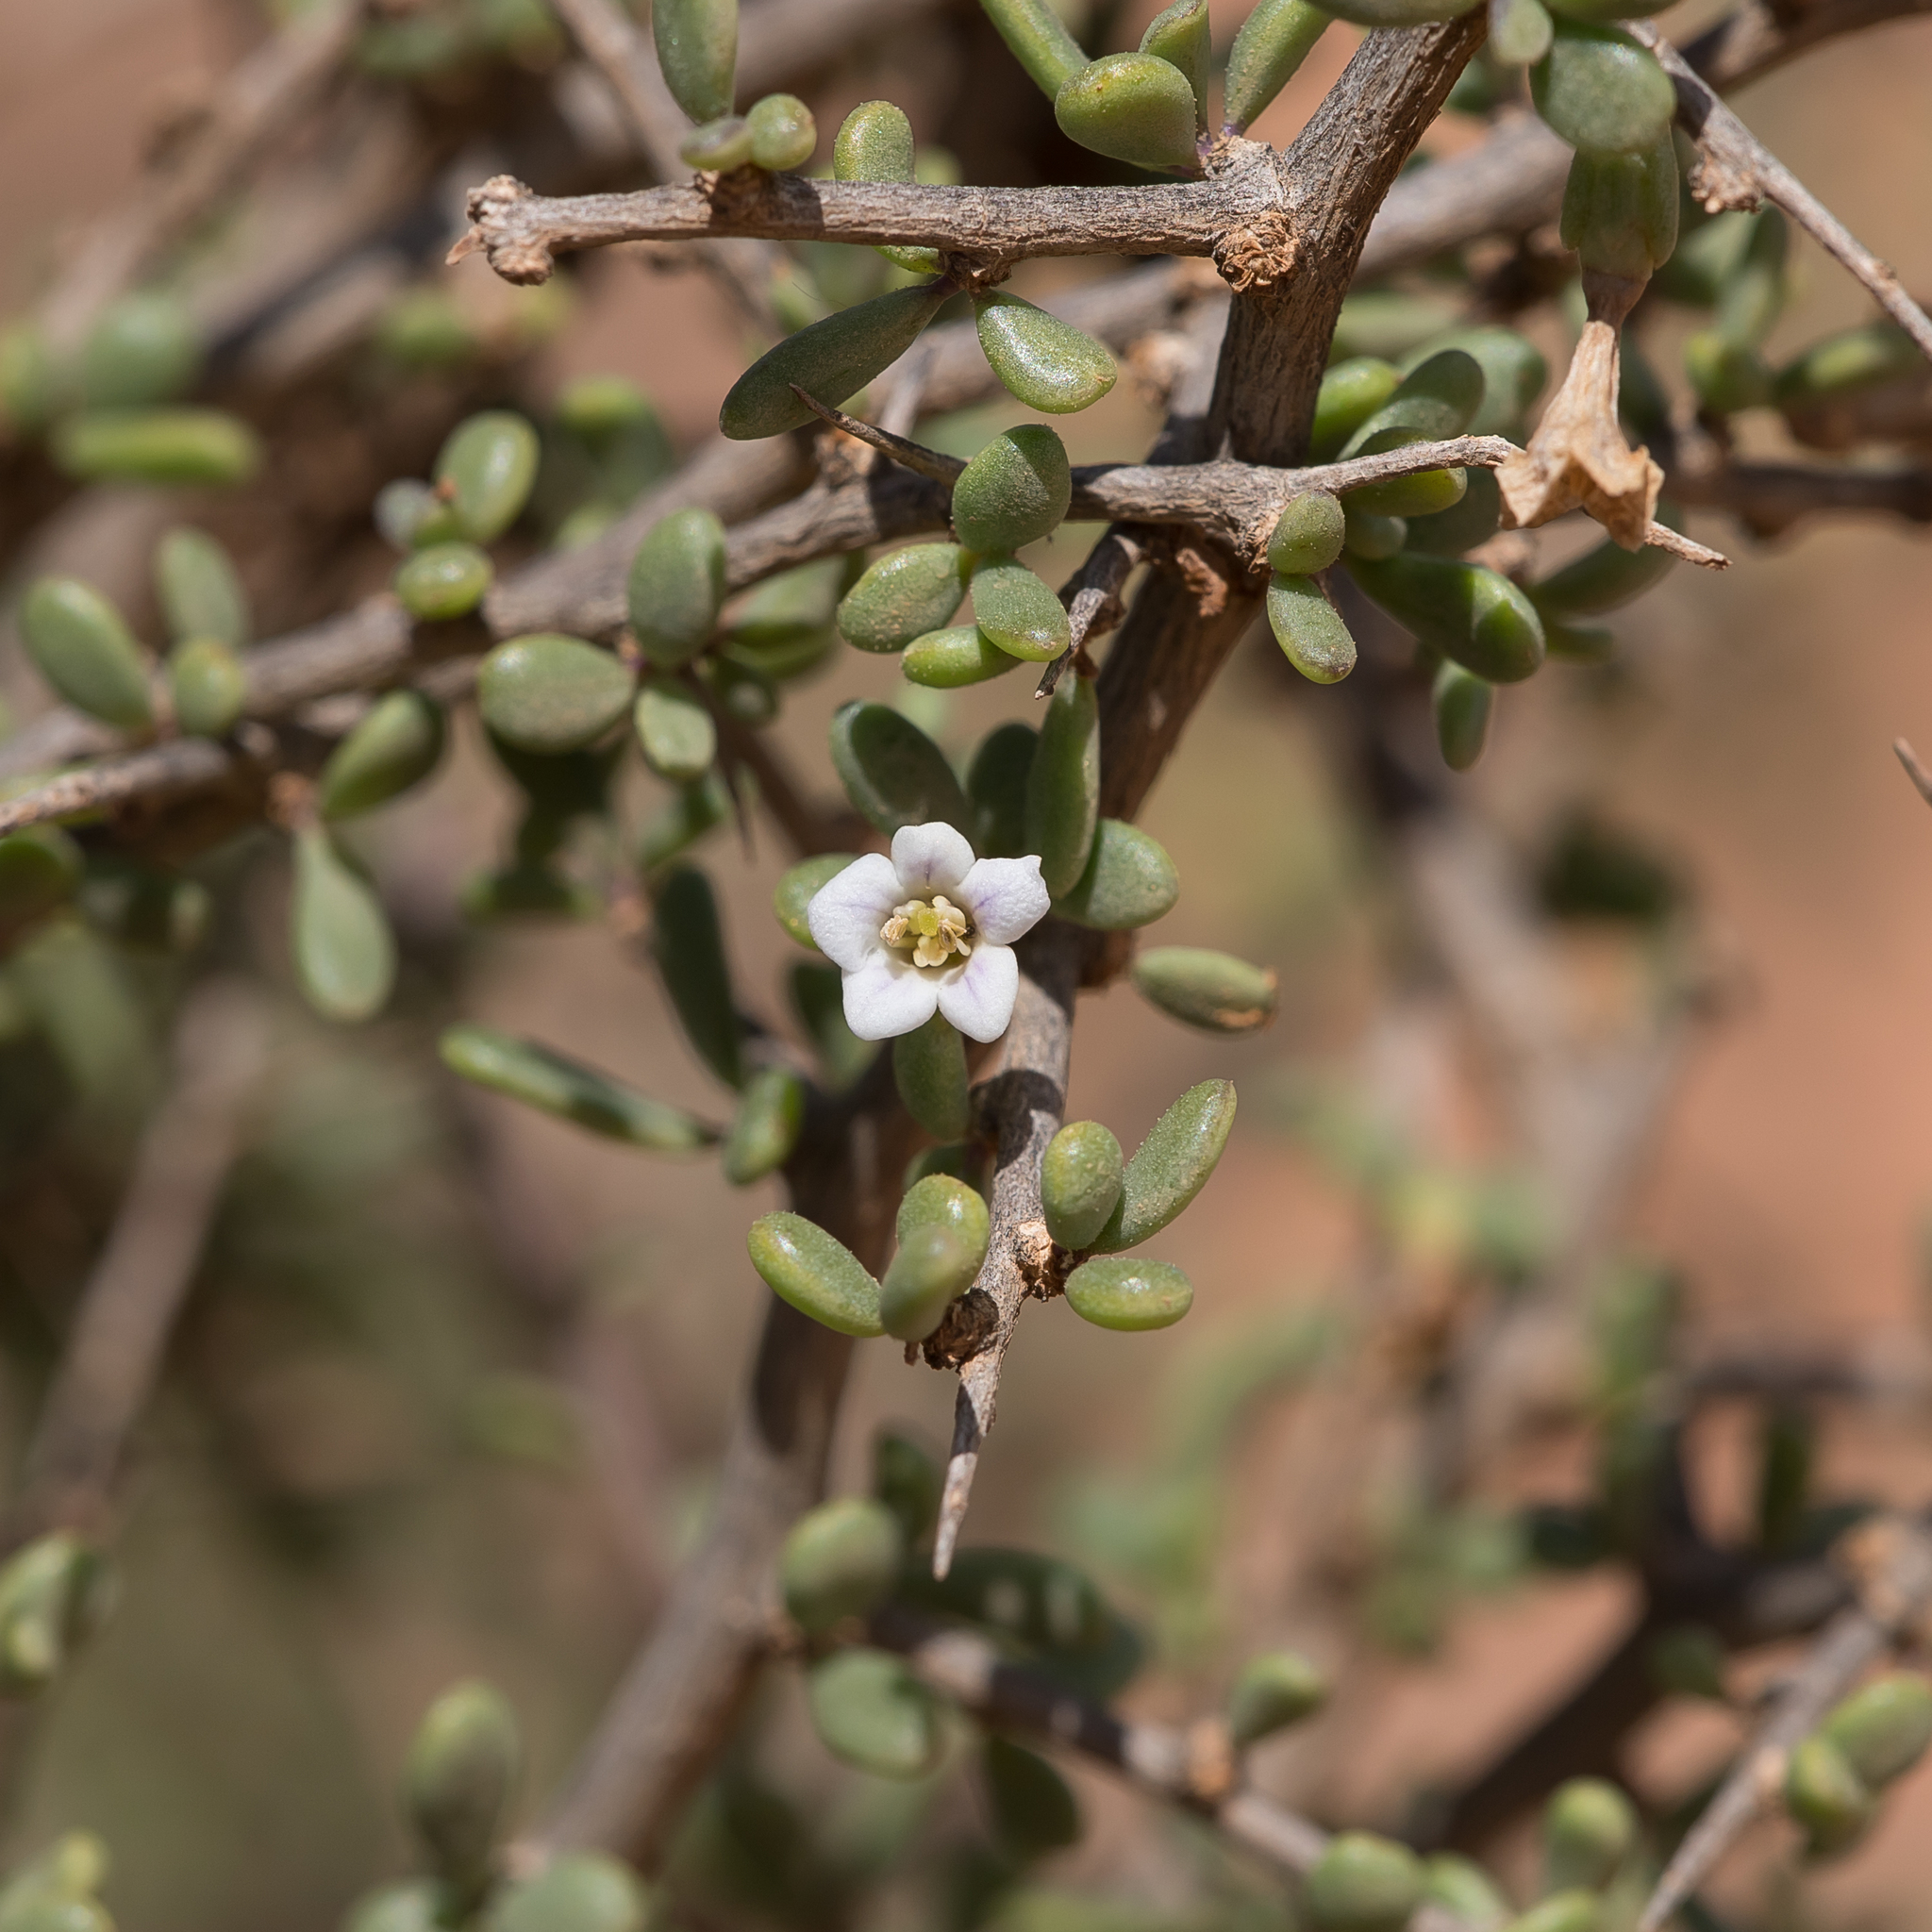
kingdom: Plantae
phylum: Tracheophyta
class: Magnoliopsida
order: Solanales
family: Solanaceae
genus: Lycium
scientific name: Lycium australe
